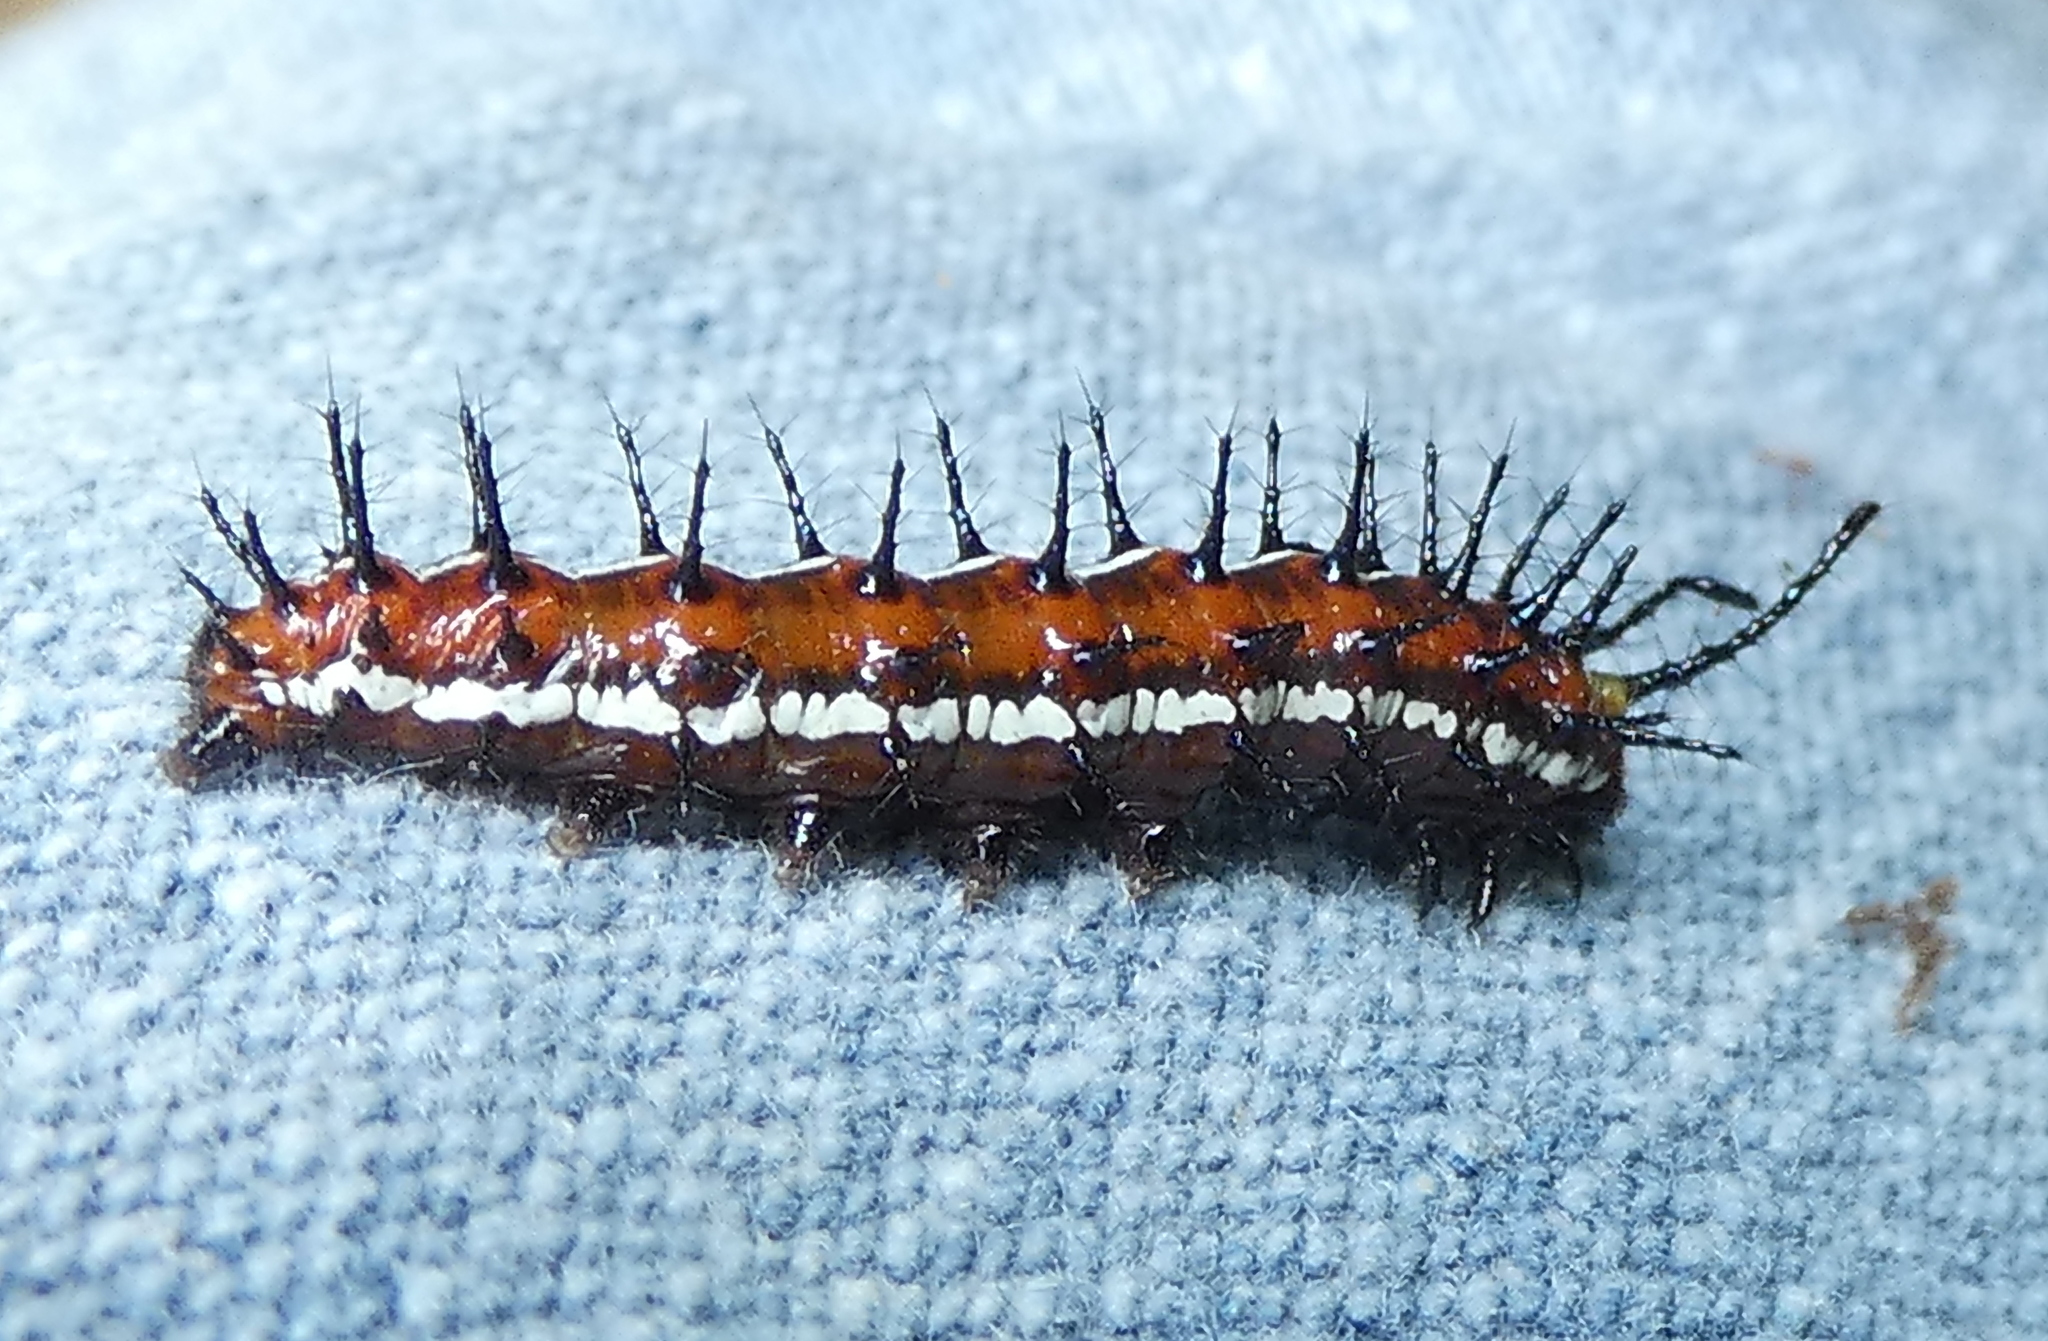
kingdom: Animalia
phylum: Arthropoda
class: Insecta
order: Lepidoptera
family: Nymphalidae
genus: Euptoieta
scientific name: Euptoieta hegesia
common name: Mexican fritillary
